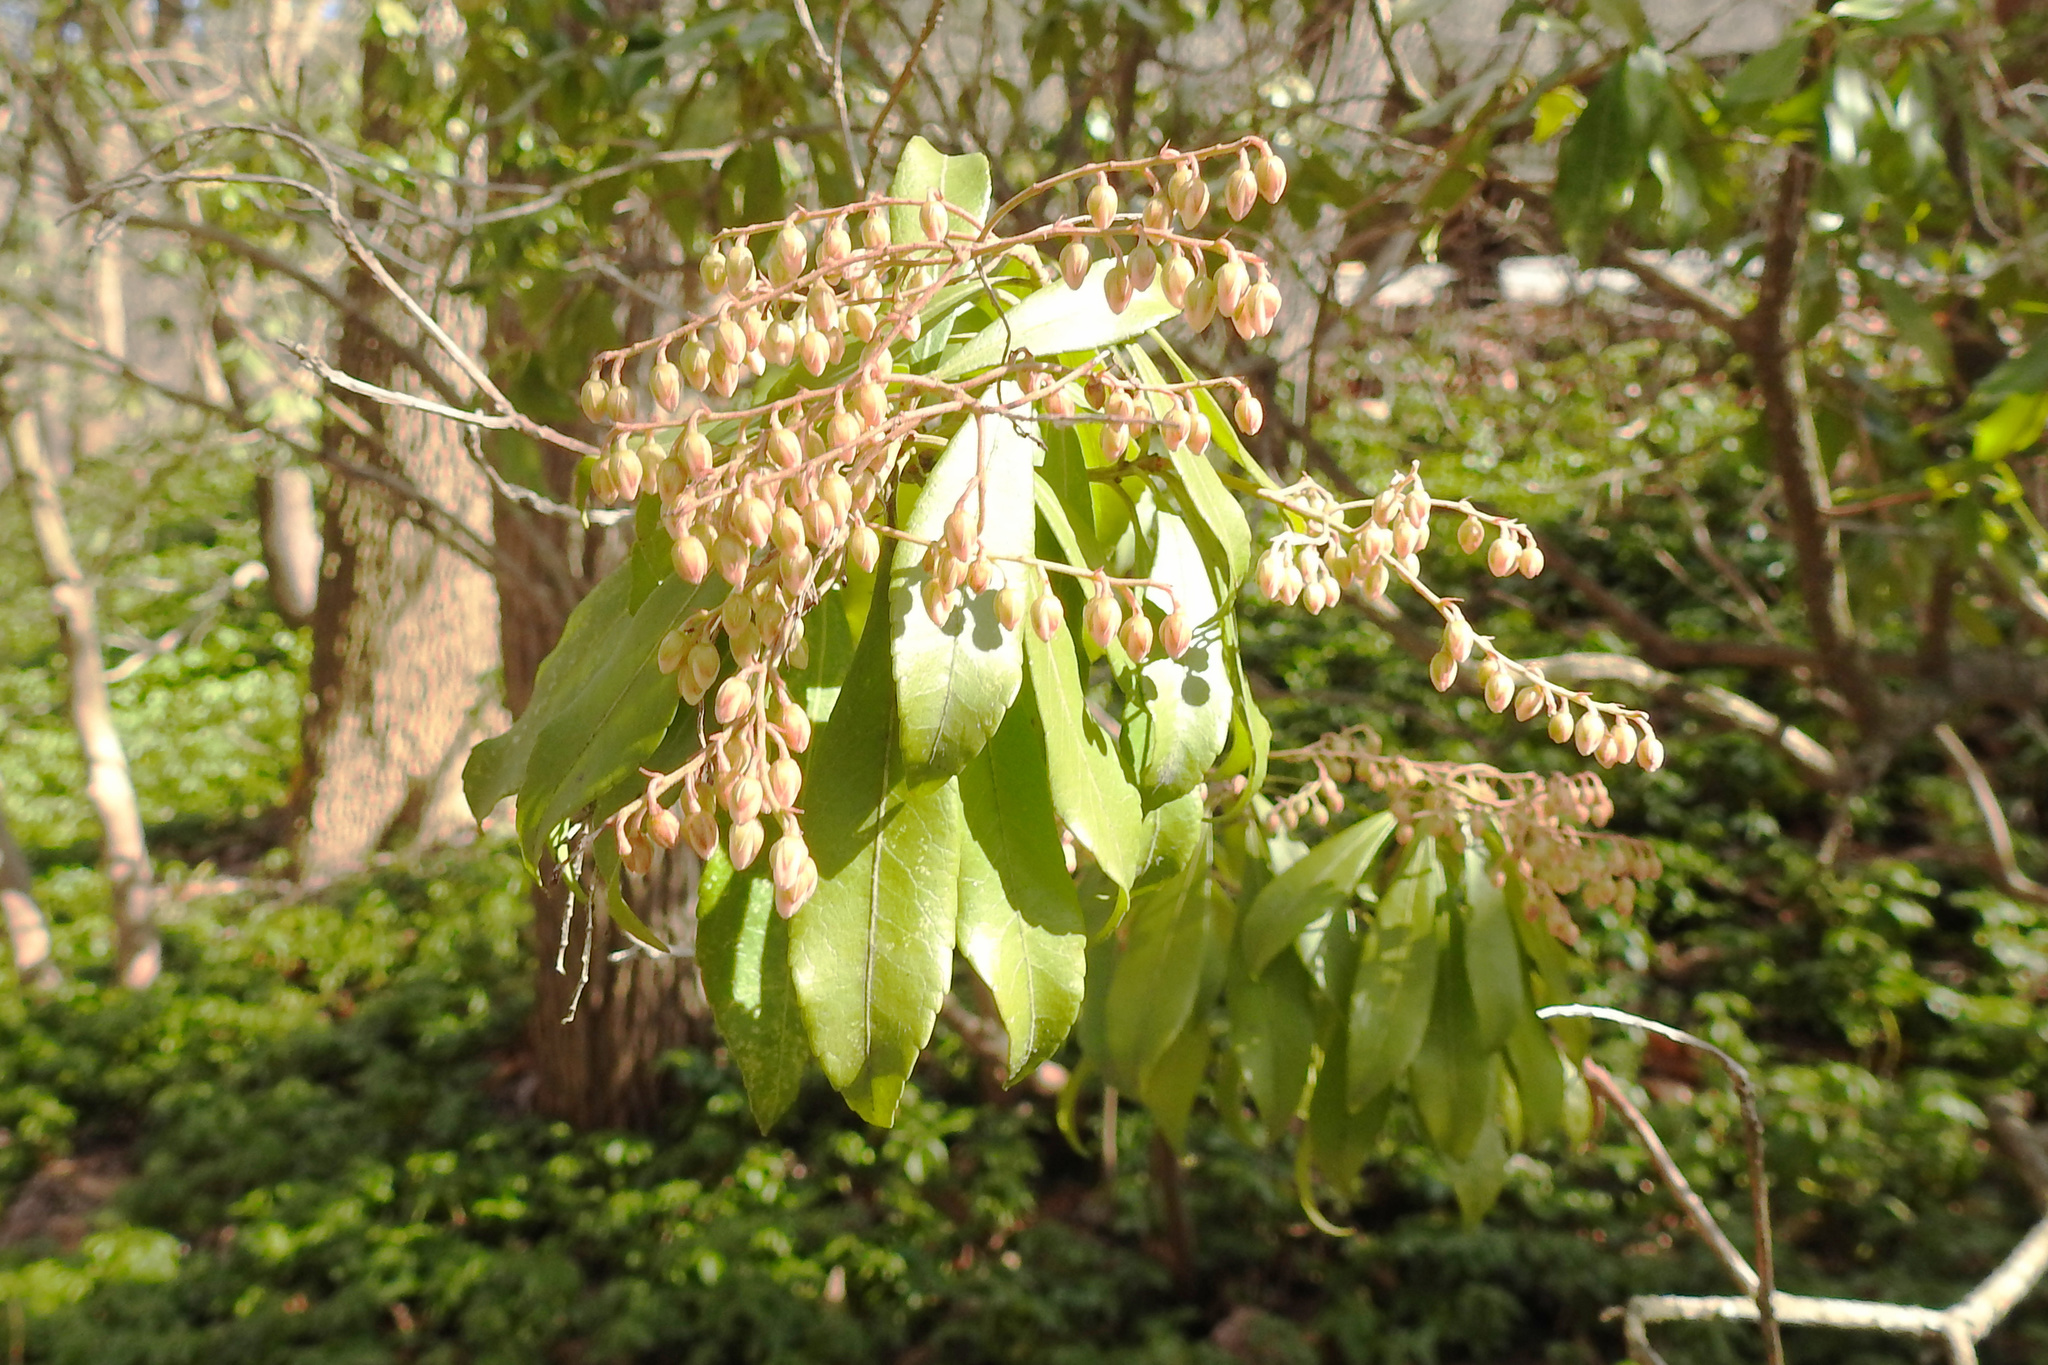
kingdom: Plantae
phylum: Tracheophyta
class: Magnoliopsida
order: Ericales
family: Ericaceae
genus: Pieris
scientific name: Pieris japonica
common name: Japanese pieris
